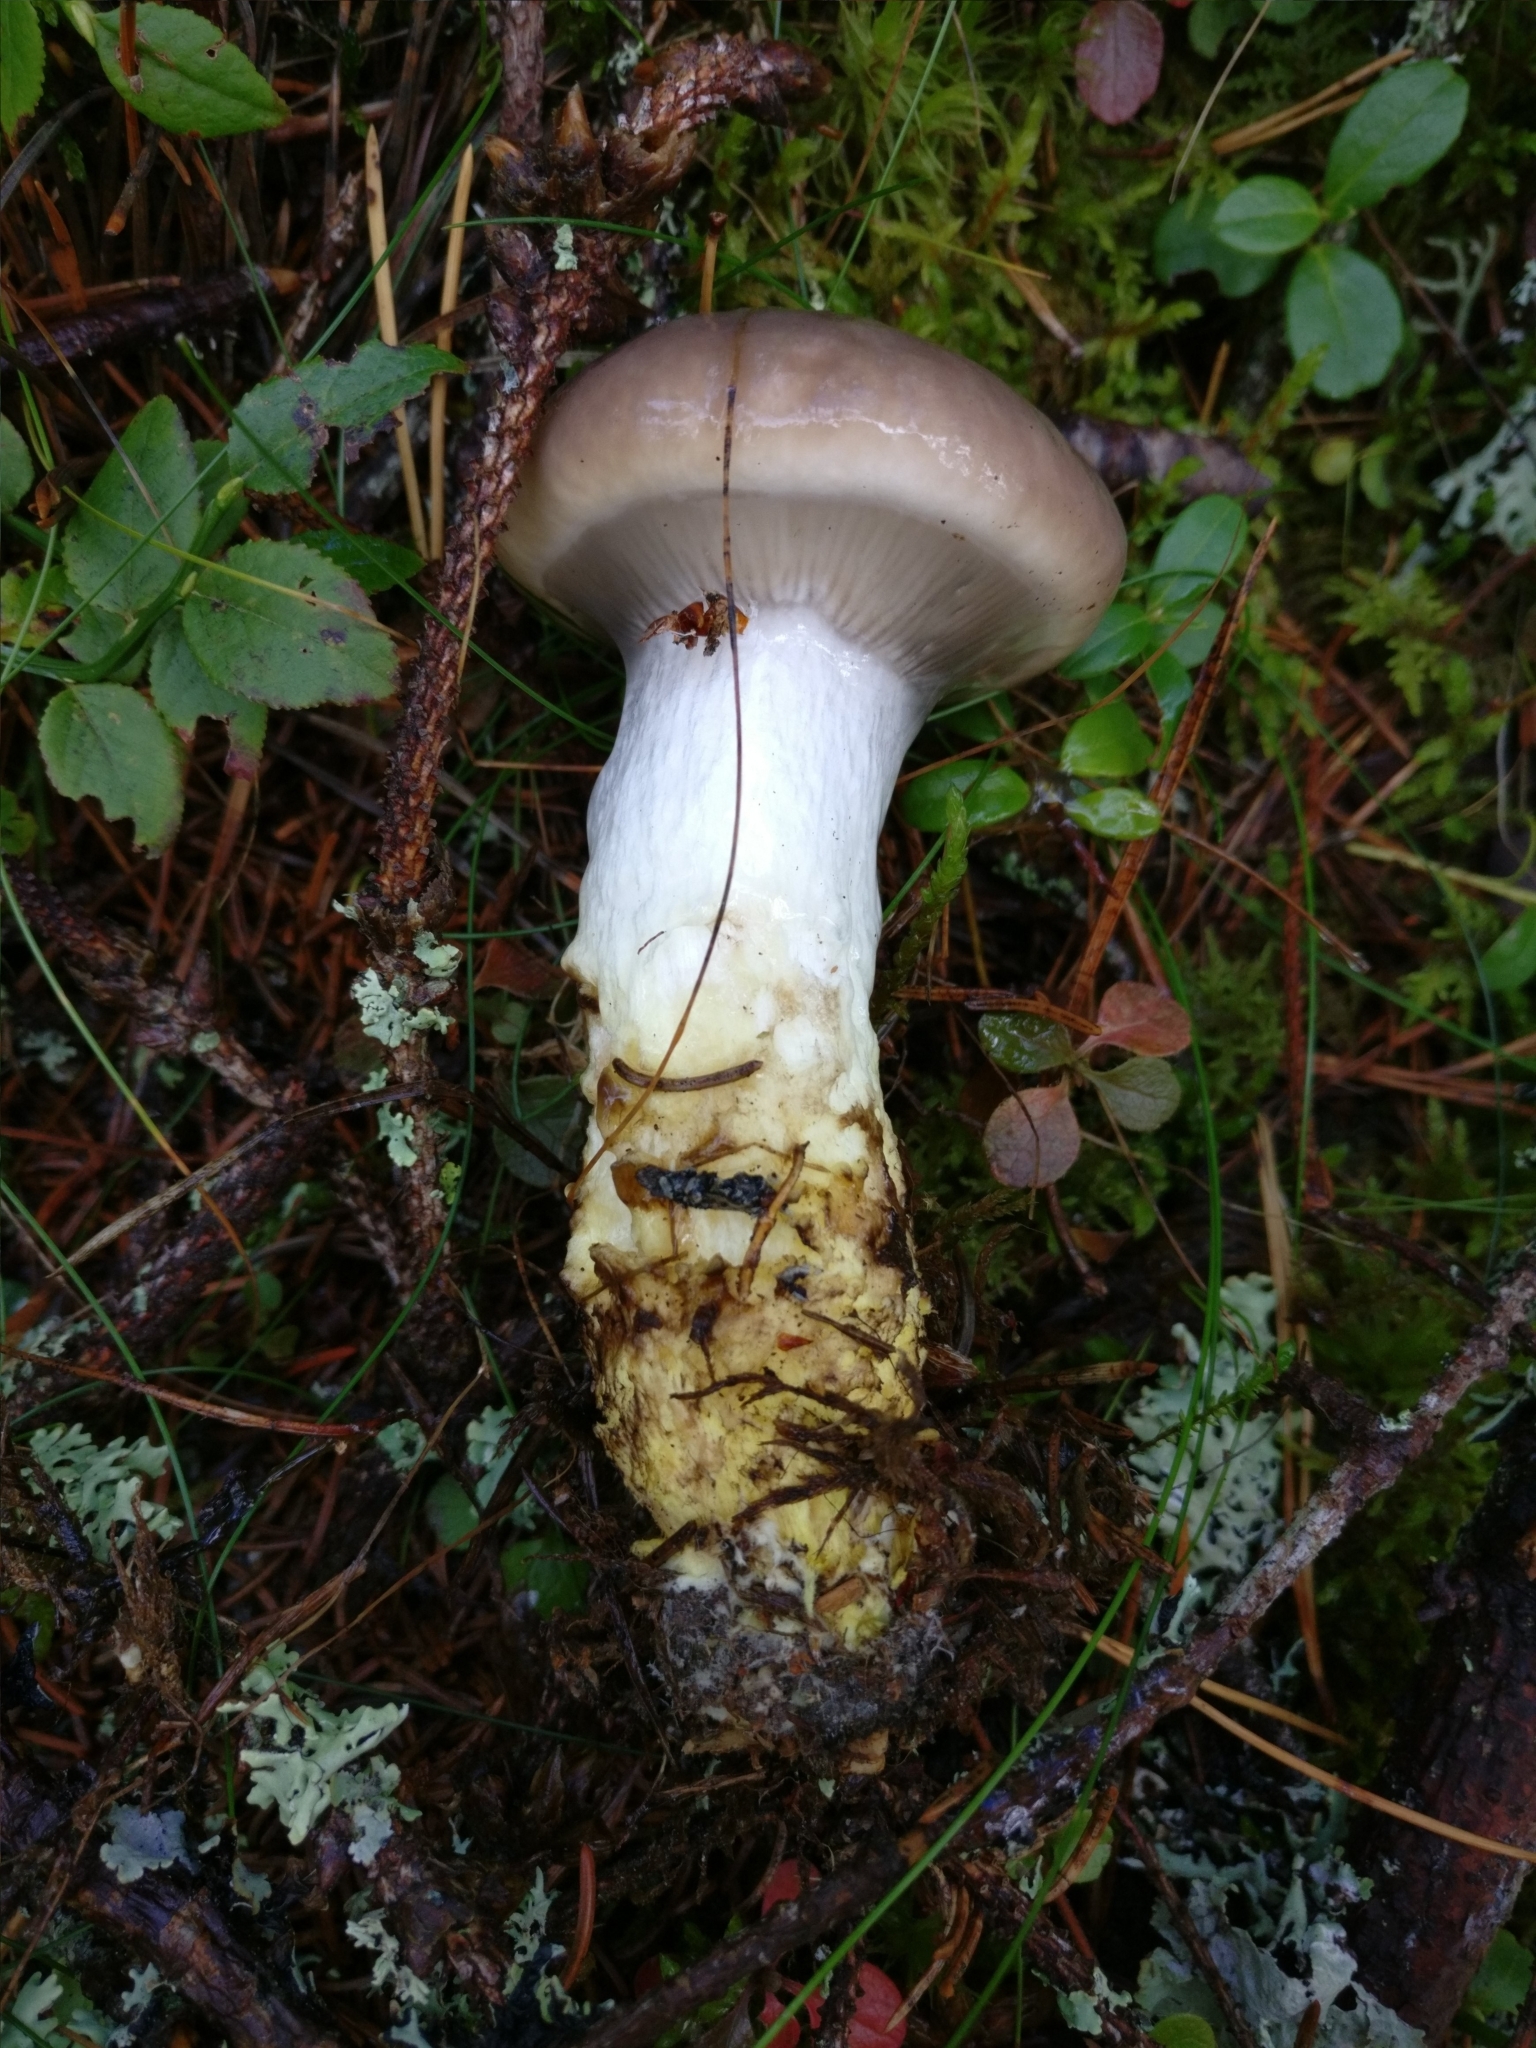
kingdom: Fungi
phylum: Basidiomycota
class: Agaricomycetes
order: Boletales
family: Gomphidiaceae
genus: Gomphidius
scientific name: Gomphidius glutinosus
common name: Slimy spike
